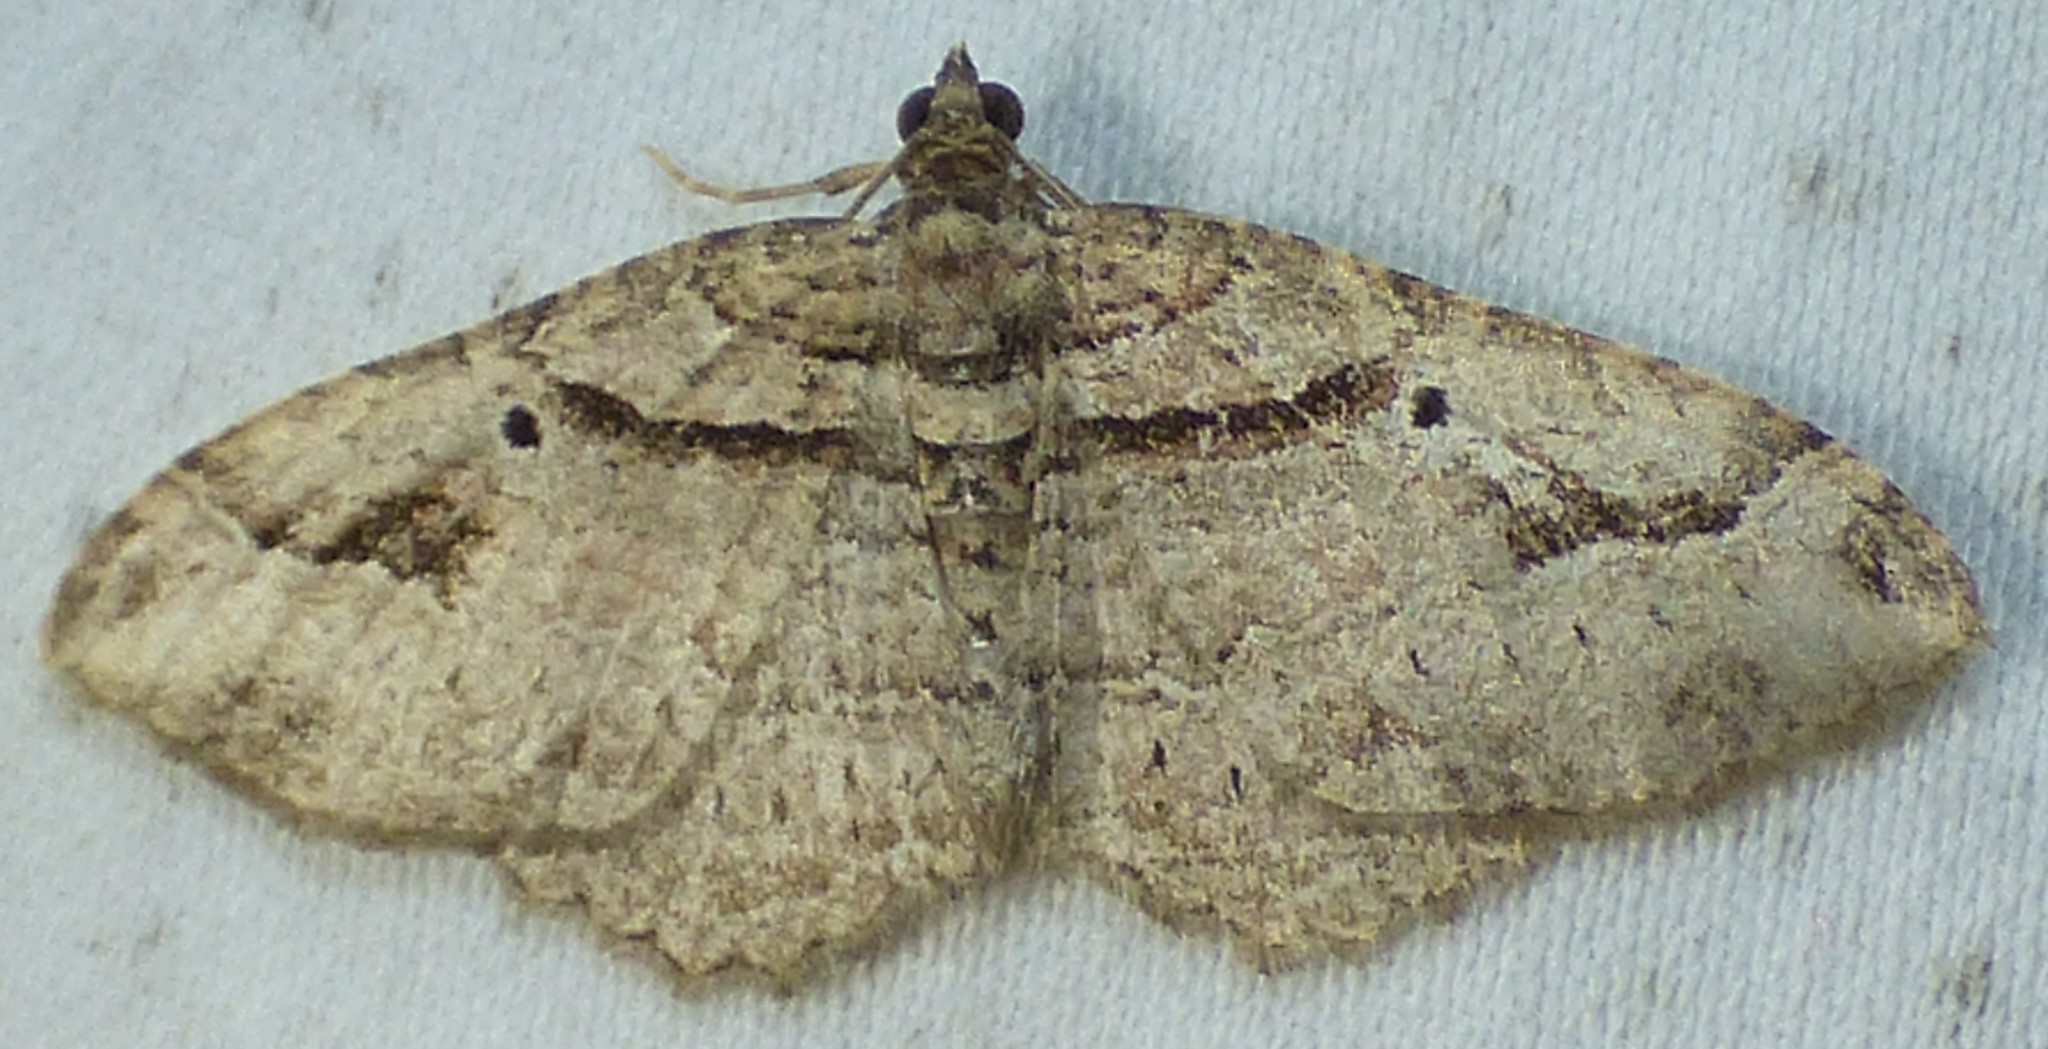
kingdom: Animalia
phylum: Arthropoda
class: Insecta
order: Lepidoptera
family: Geometridae
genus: Costaconvexa
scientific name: Costaconvexa centrostrigaria
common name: Bent-line carpet
